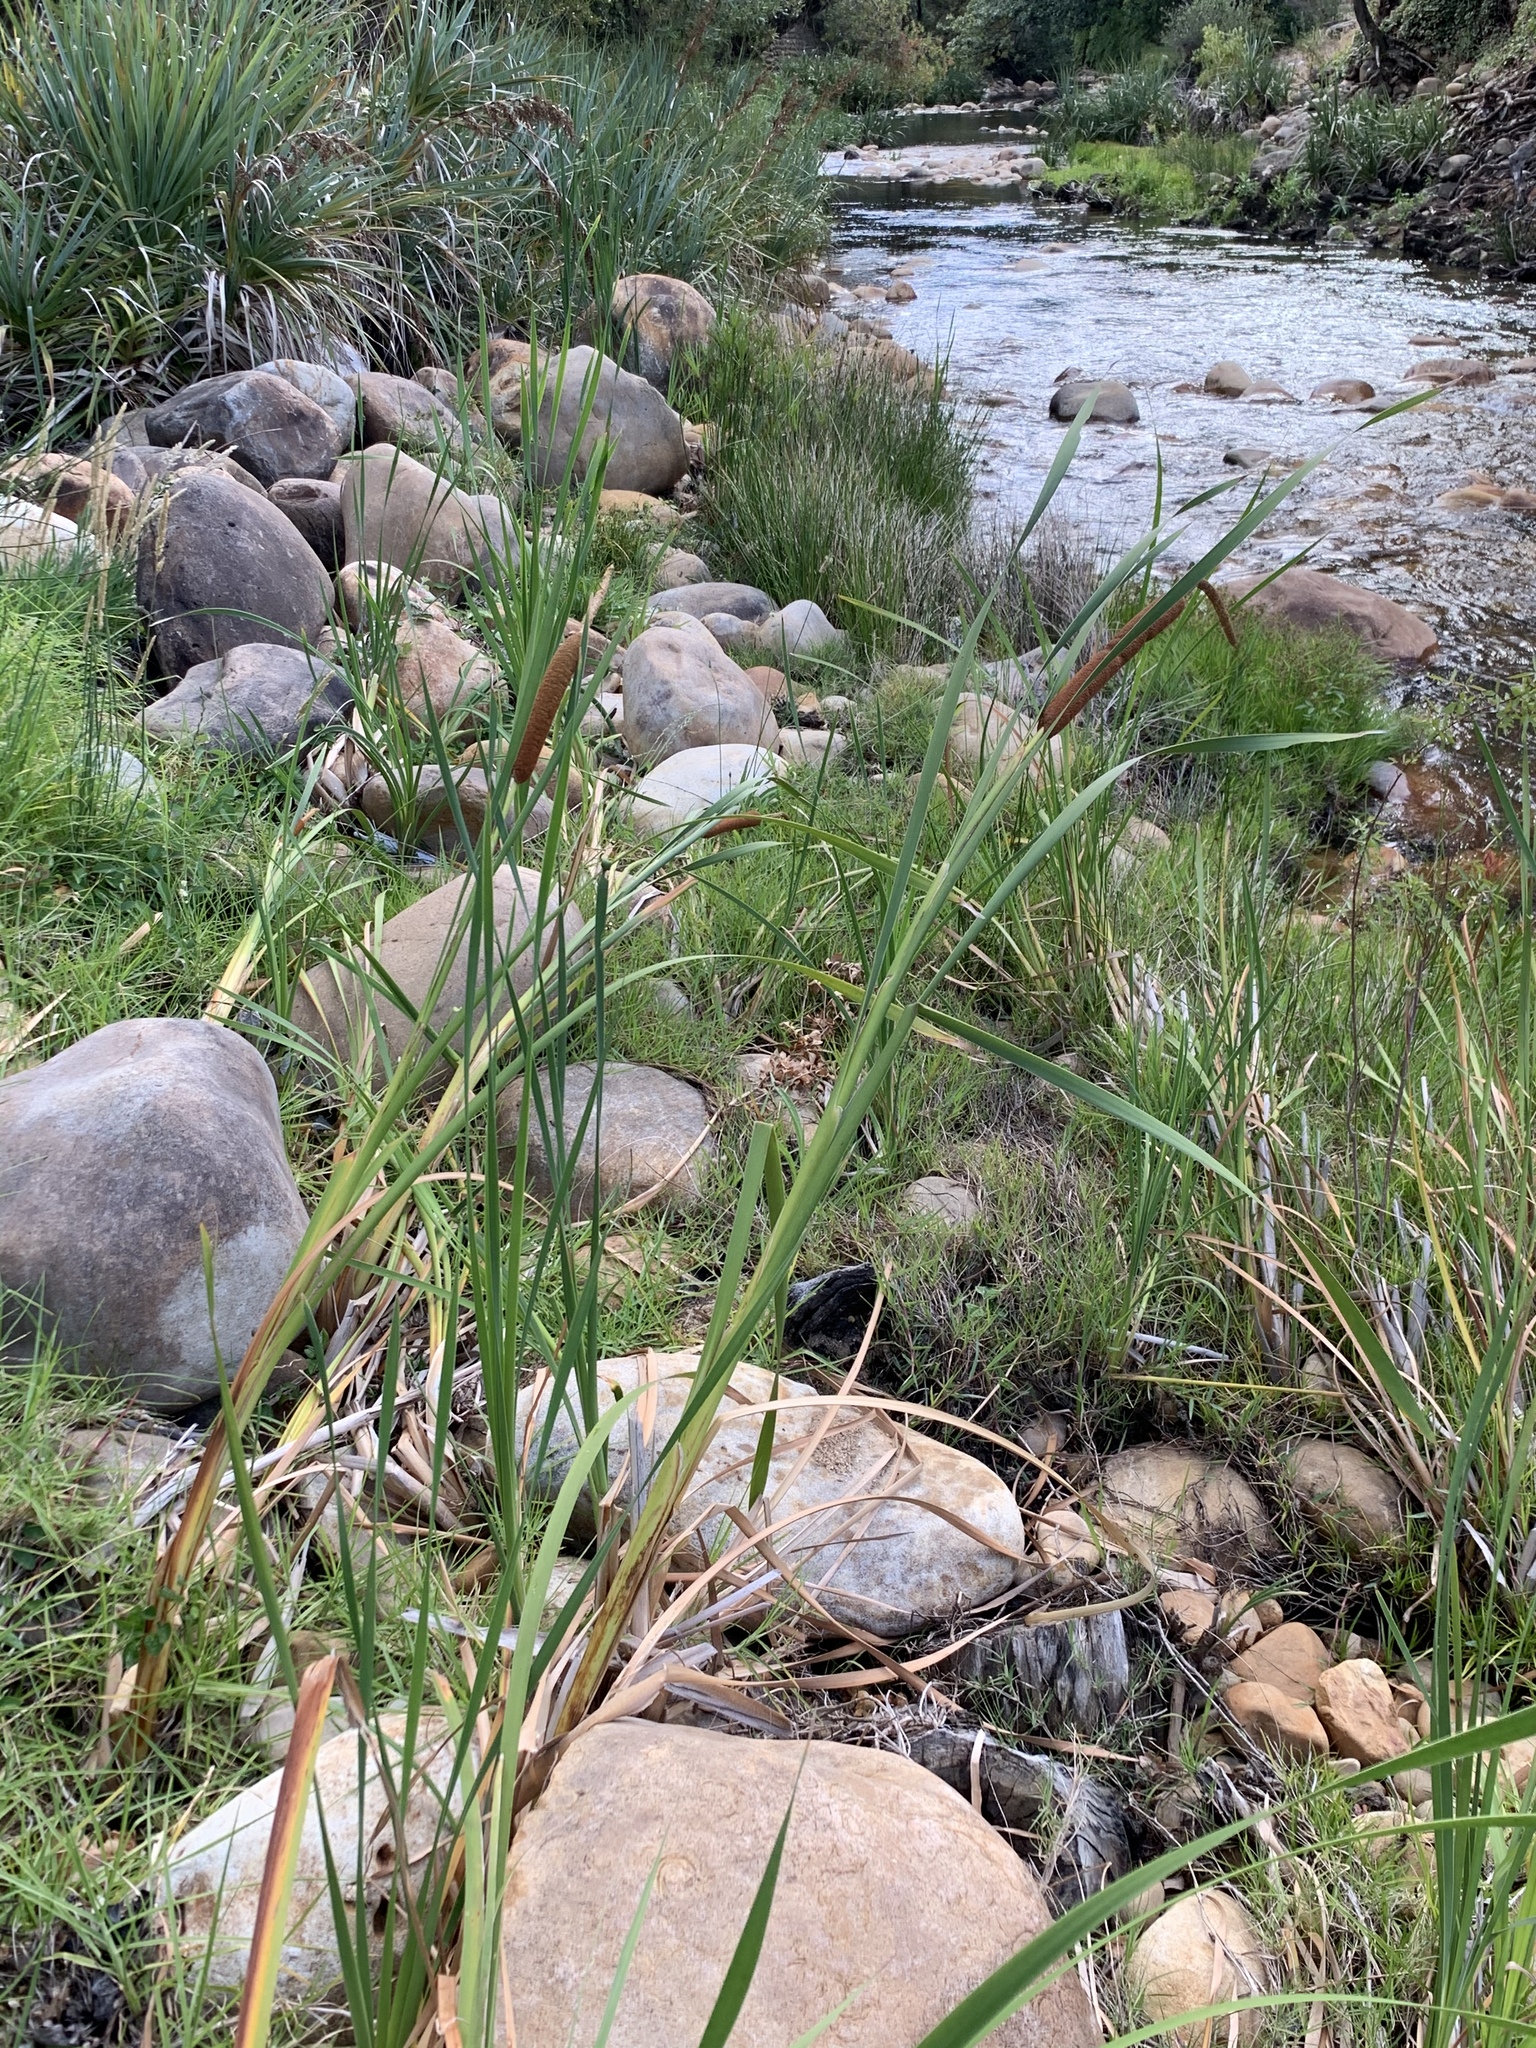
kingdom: Plantae
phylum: Tracheophyta
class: Liliopsida
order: Poales
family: Typhaceae
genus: Typha
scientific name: Typha capensis
